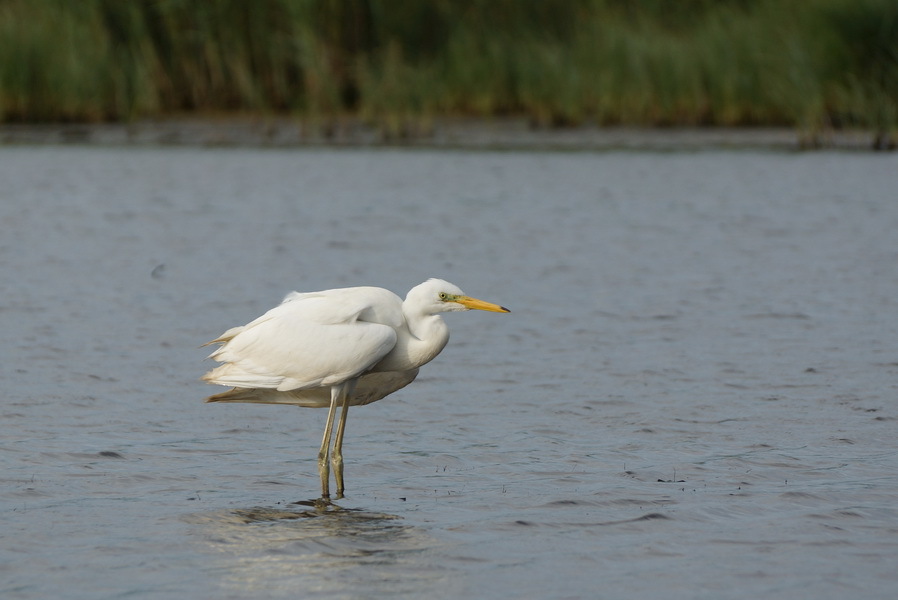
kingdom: Animalia
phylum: Chordata
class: Aves
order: Pelecaniformes
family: Ardeidae
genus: Ardea
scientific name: Ardea alba
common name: Great egret
